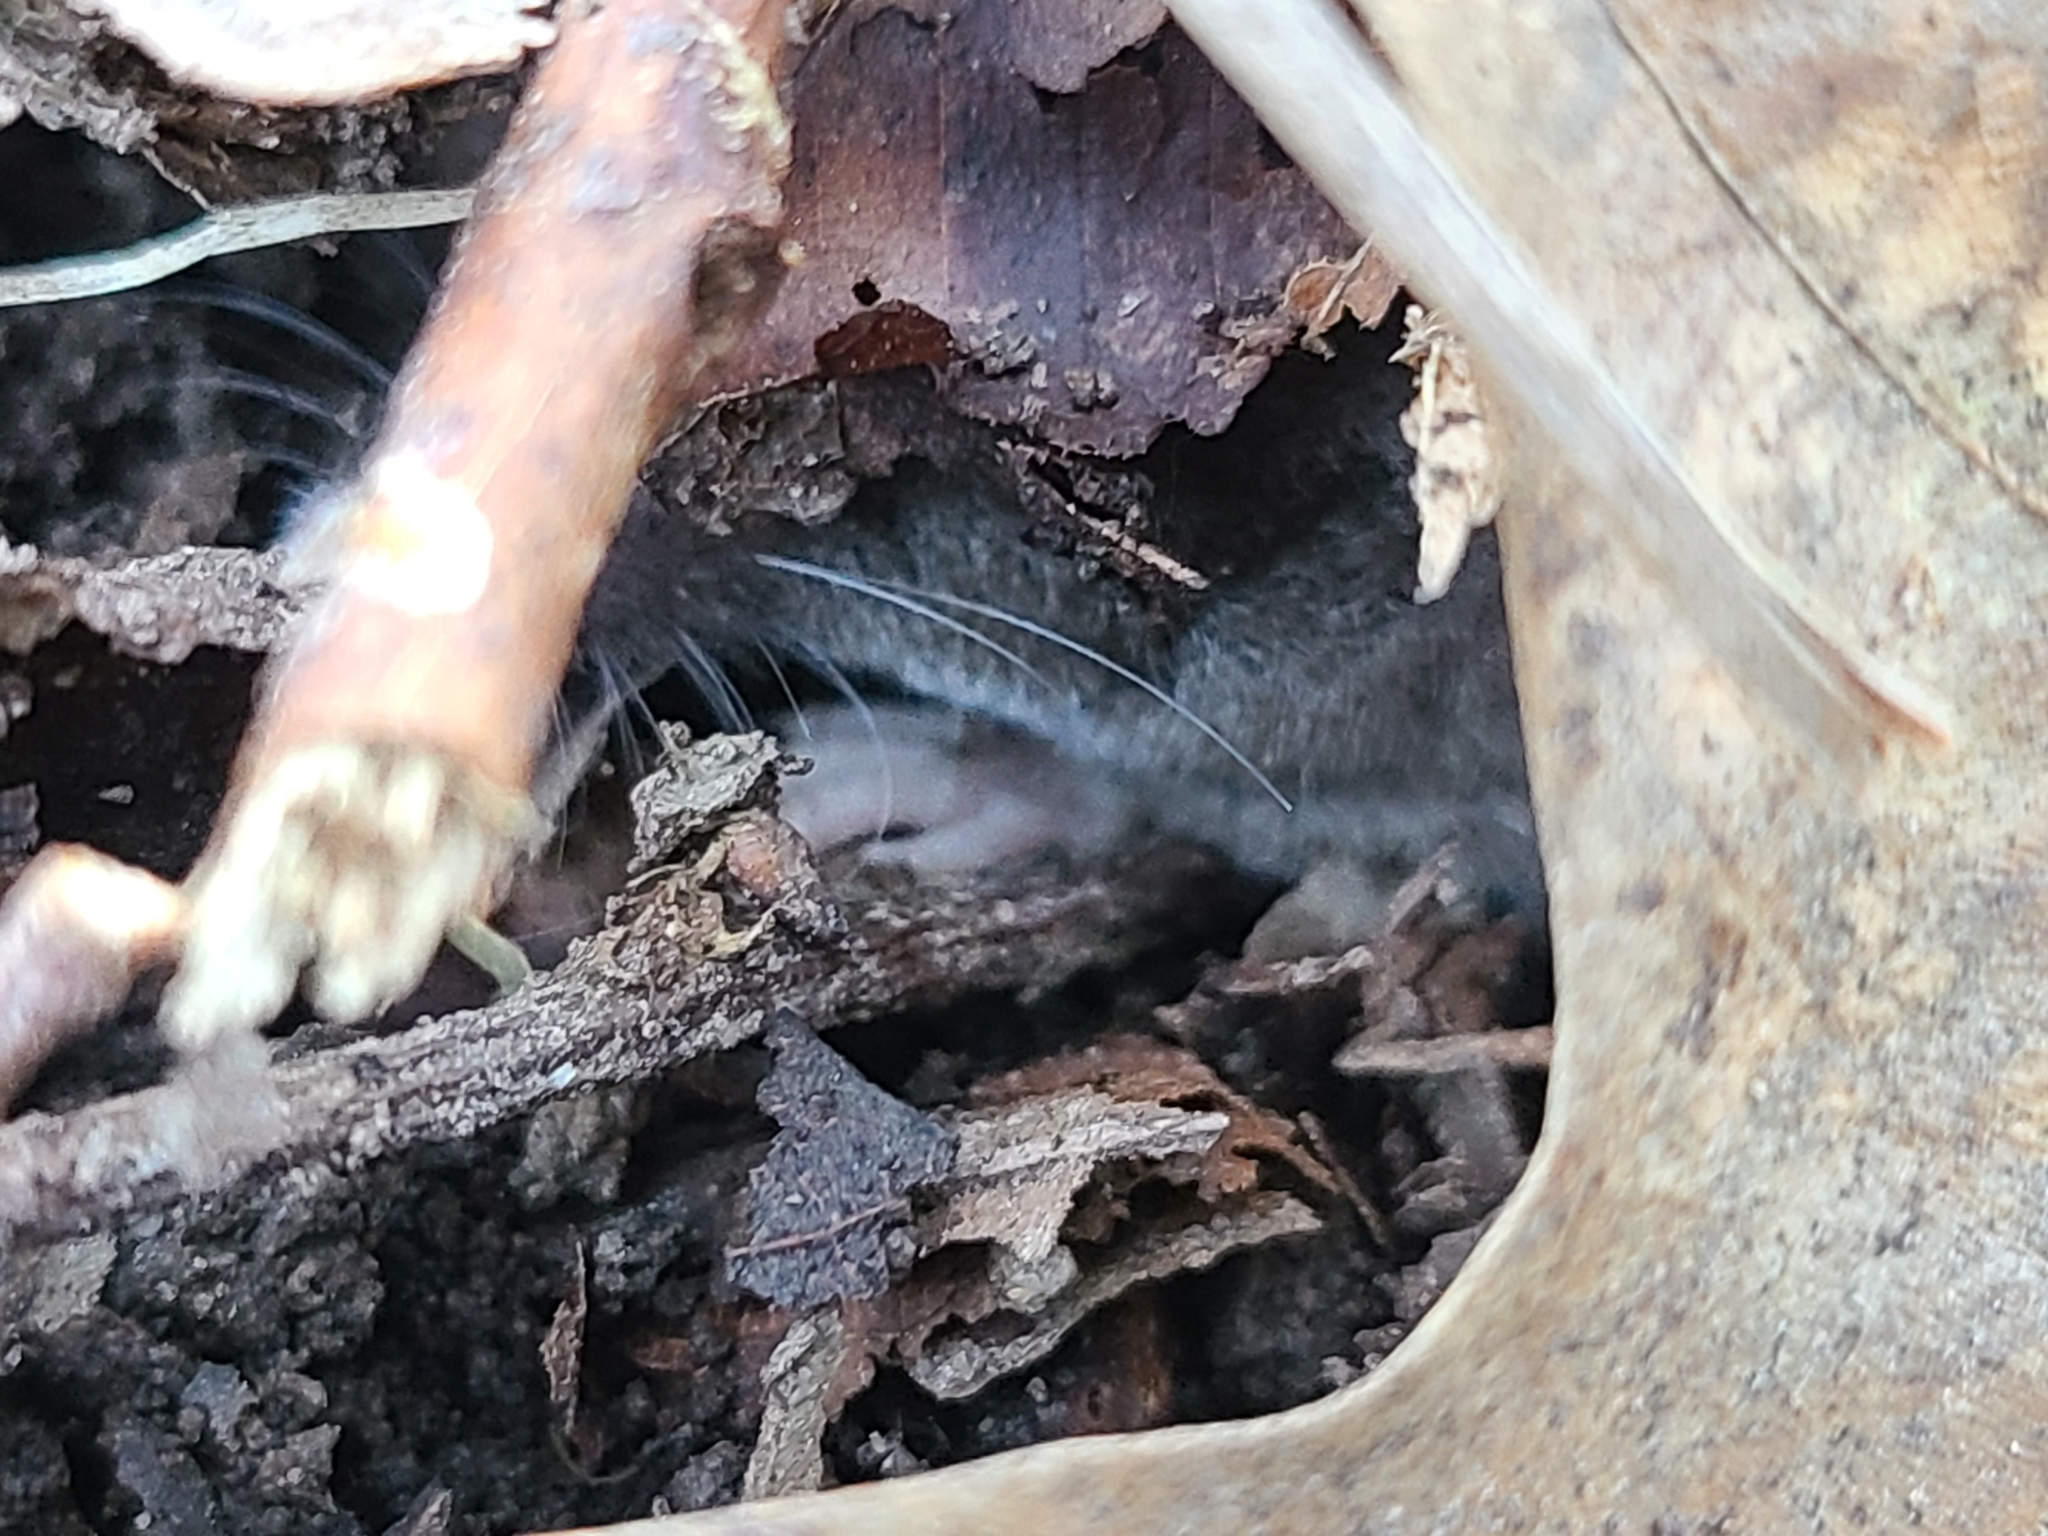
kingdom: Animalia
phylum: Chordata
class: Mammalia
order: Soricomorpha
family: Soricidae
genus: Blarina
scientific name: Blarina carolinensis
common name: Southern short-tailed shrew
